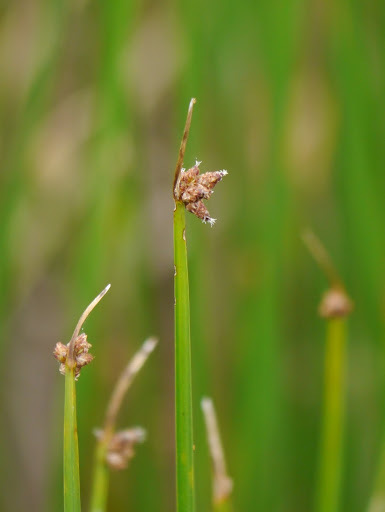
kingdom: Plantae
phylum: Tracheophyta
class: Liliopsida
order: Poales
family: Cyperaceae
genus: Schoenoplectus
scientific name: Schoenoplectus americanus
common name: American three-square bulrush
